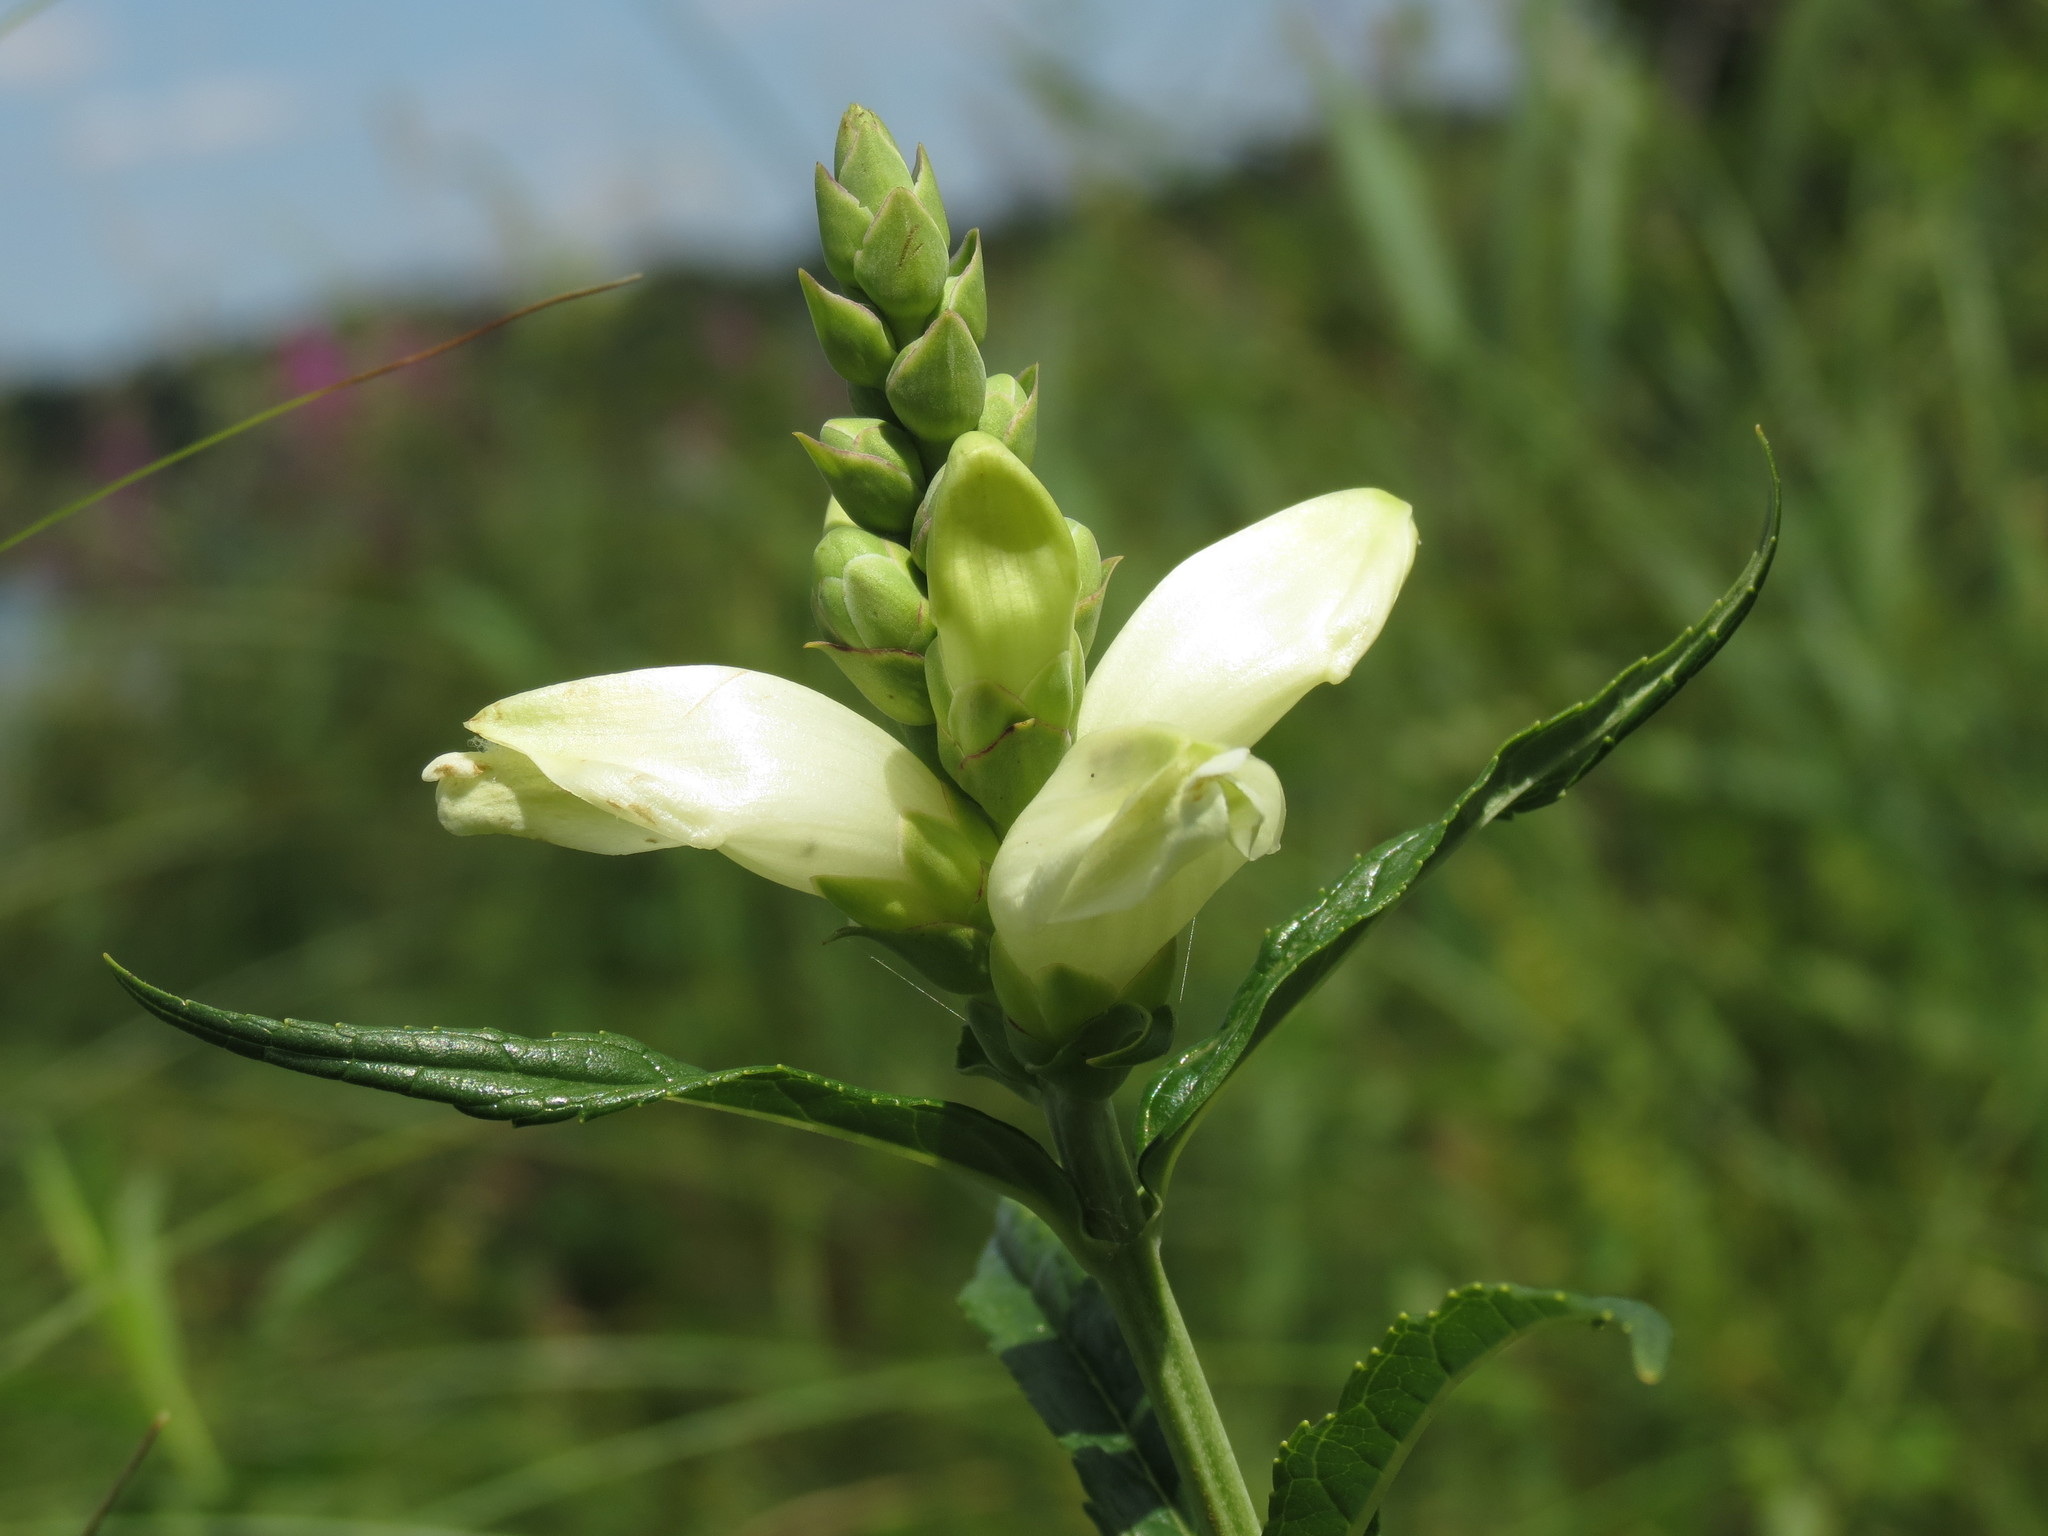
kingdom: Plantae
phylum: Tracheophyta
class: Magnoliopsida
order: Lamiales
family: Plantaginaceae
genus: Chelone
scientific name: Chelone glabra
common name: Snakehead
